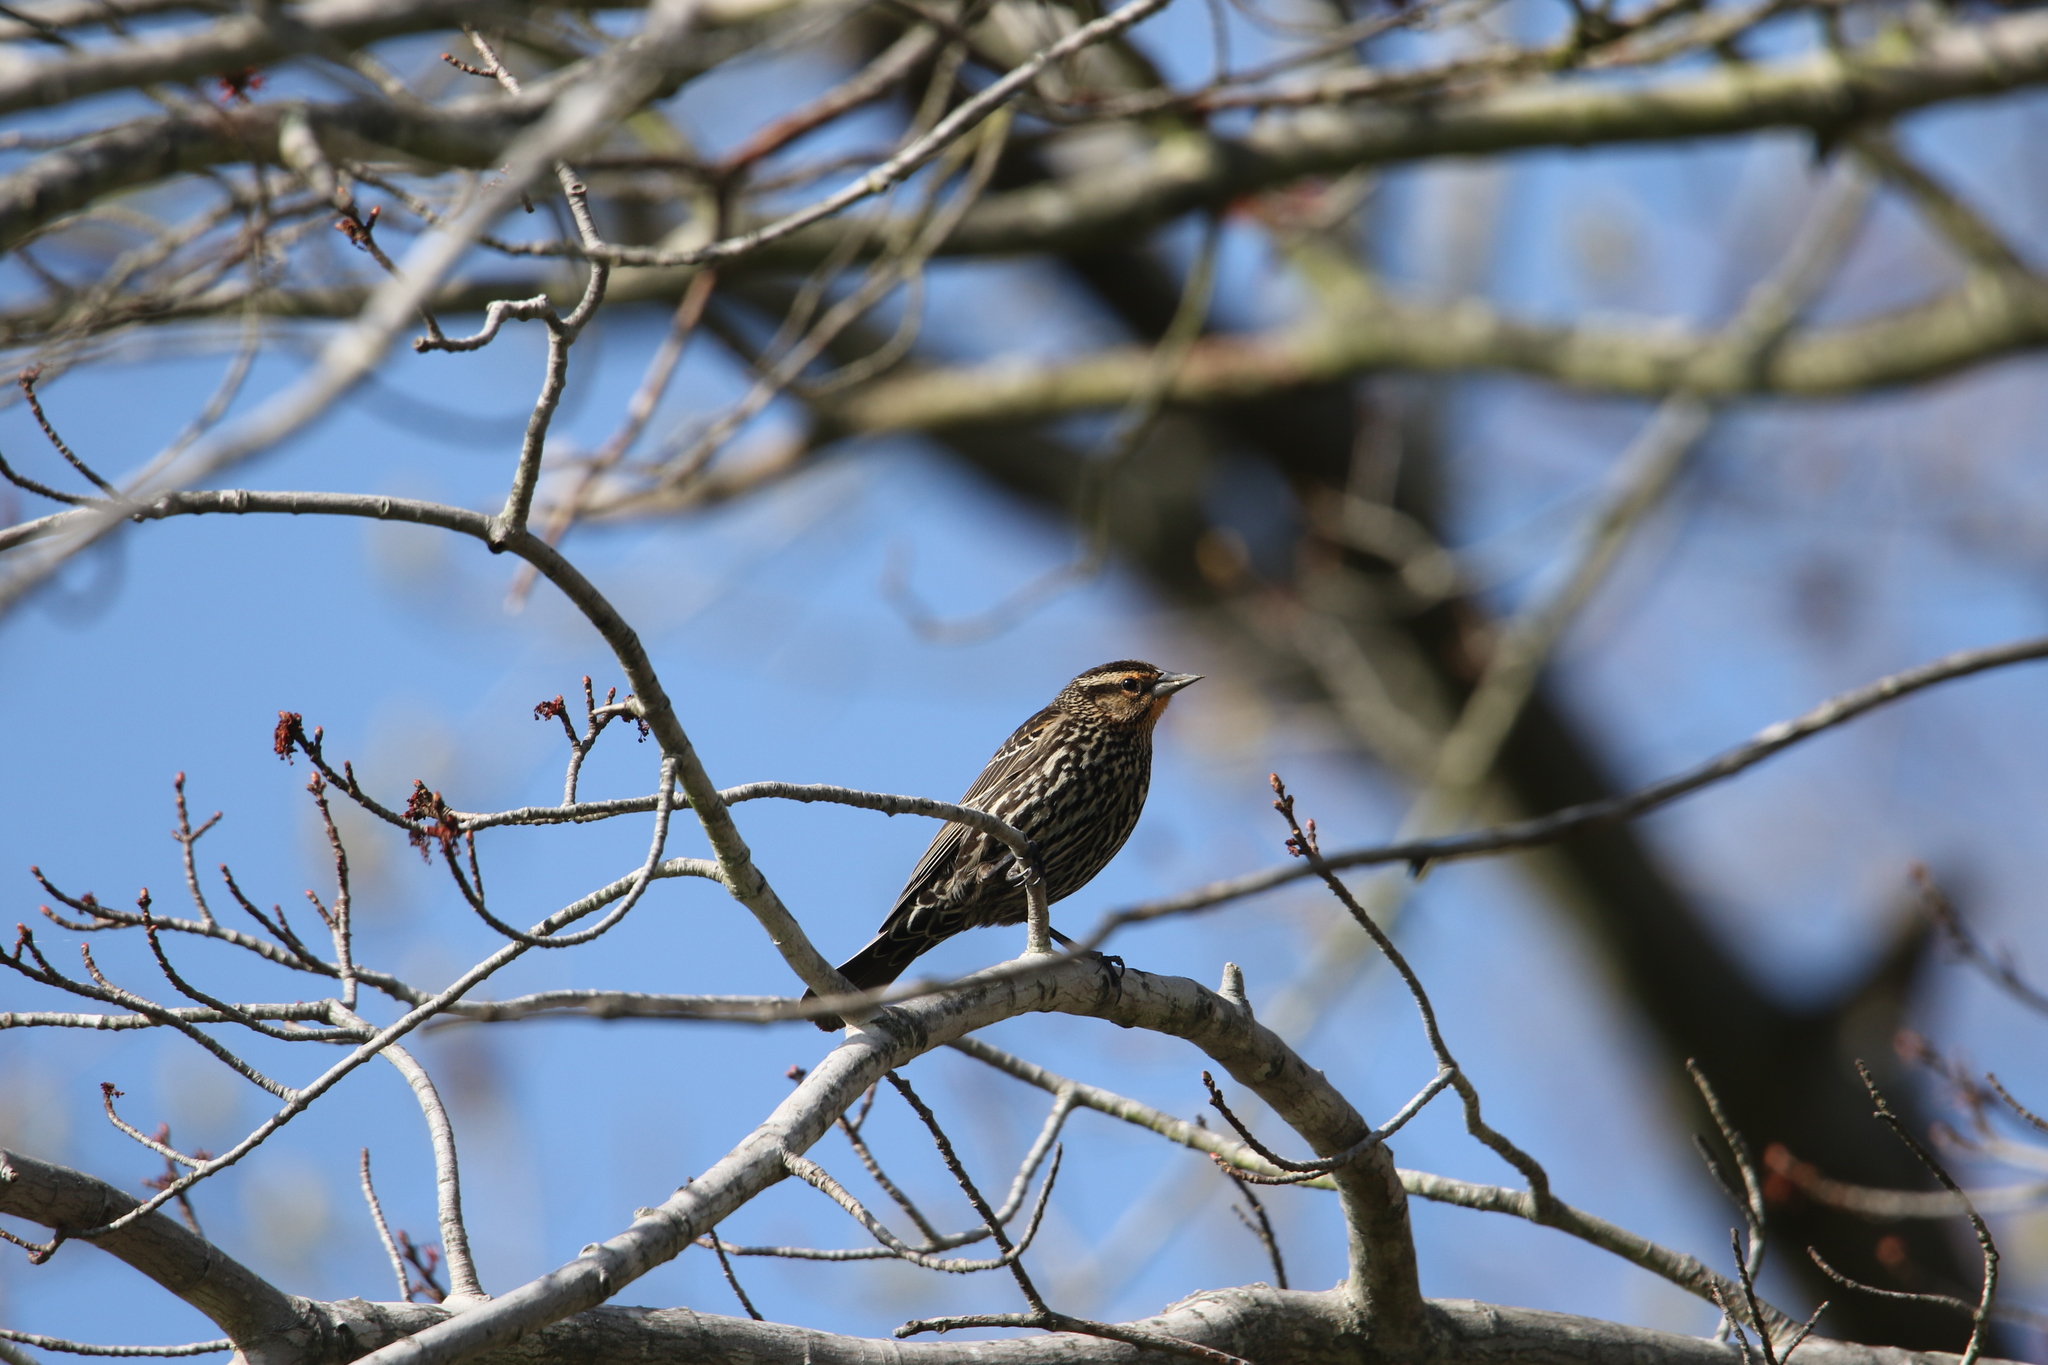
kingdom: Animalia
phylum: Chordata
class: Aves
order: Passeriformes
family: Icteridae
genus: Agelaius
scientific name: Agelaius phoeniceus
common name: Red-winged blackbird
